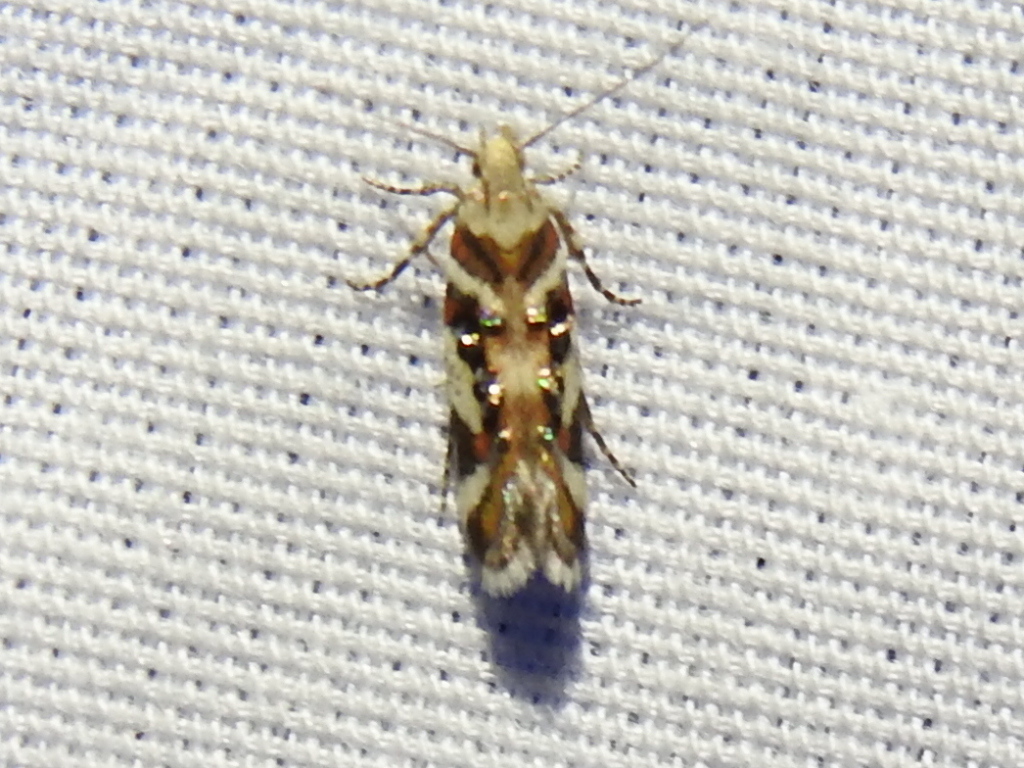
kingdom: Animalia
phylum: Arthropoda
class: Insecta
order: Lepidoptera
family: Gelechiidae
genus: Aristotelia
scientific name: Aristotelia elegantella
